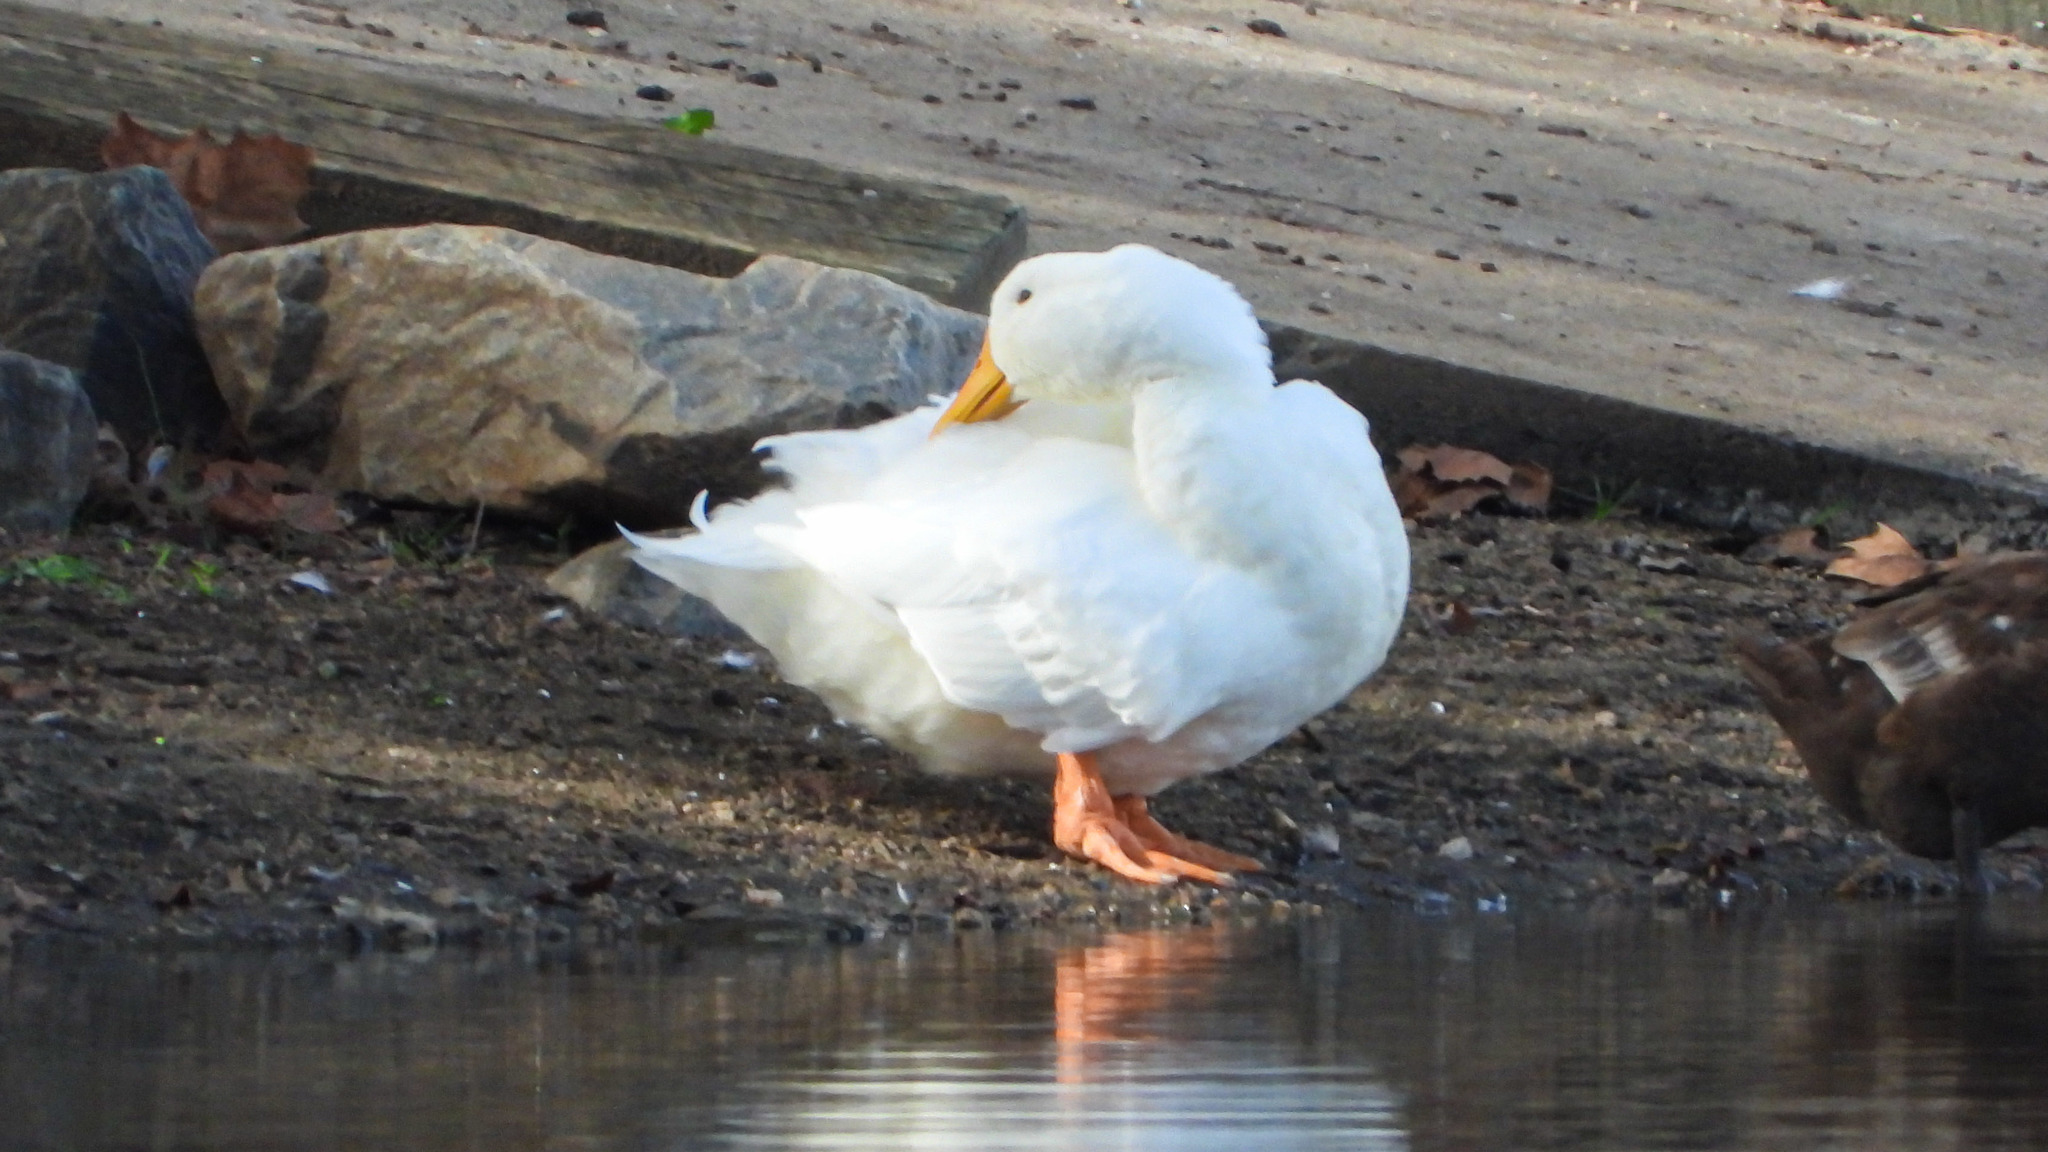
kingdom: Animalia
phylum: Chordata
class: Aves
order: Anseriformes
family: Anatidae
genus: Anas
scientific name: Anas platyrhynchos
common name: Mallard
